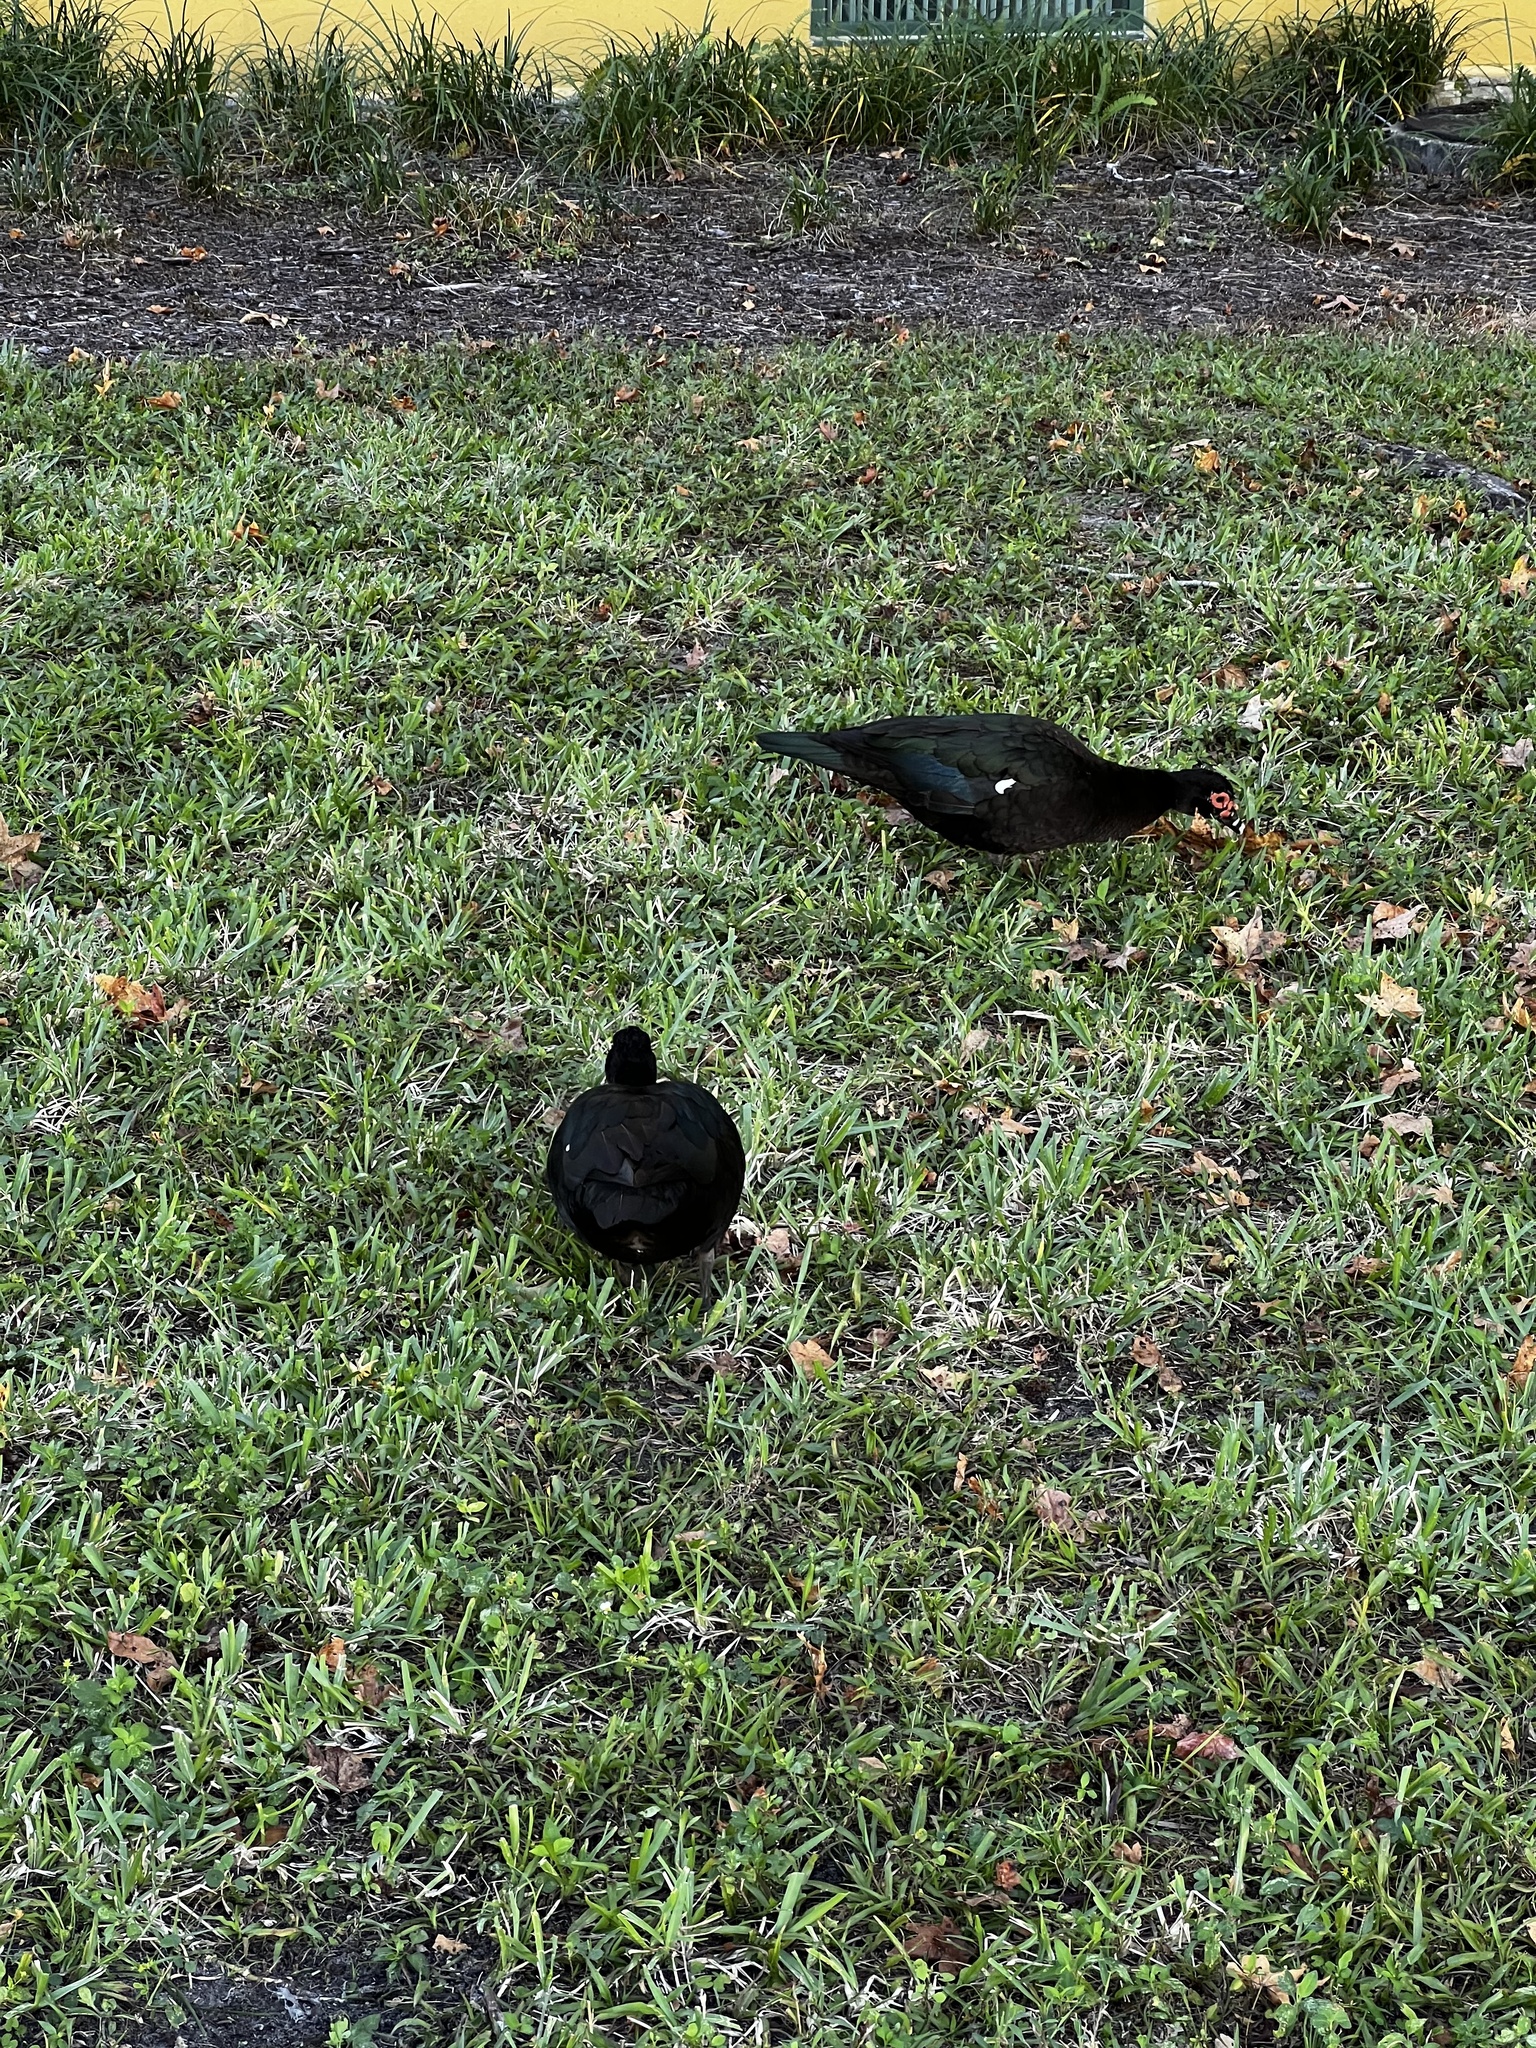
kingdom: Animalia
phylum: Chordata
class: Aves
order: Anseriformes
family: Anatidae
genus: Cairina
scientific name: Cairina moschata
